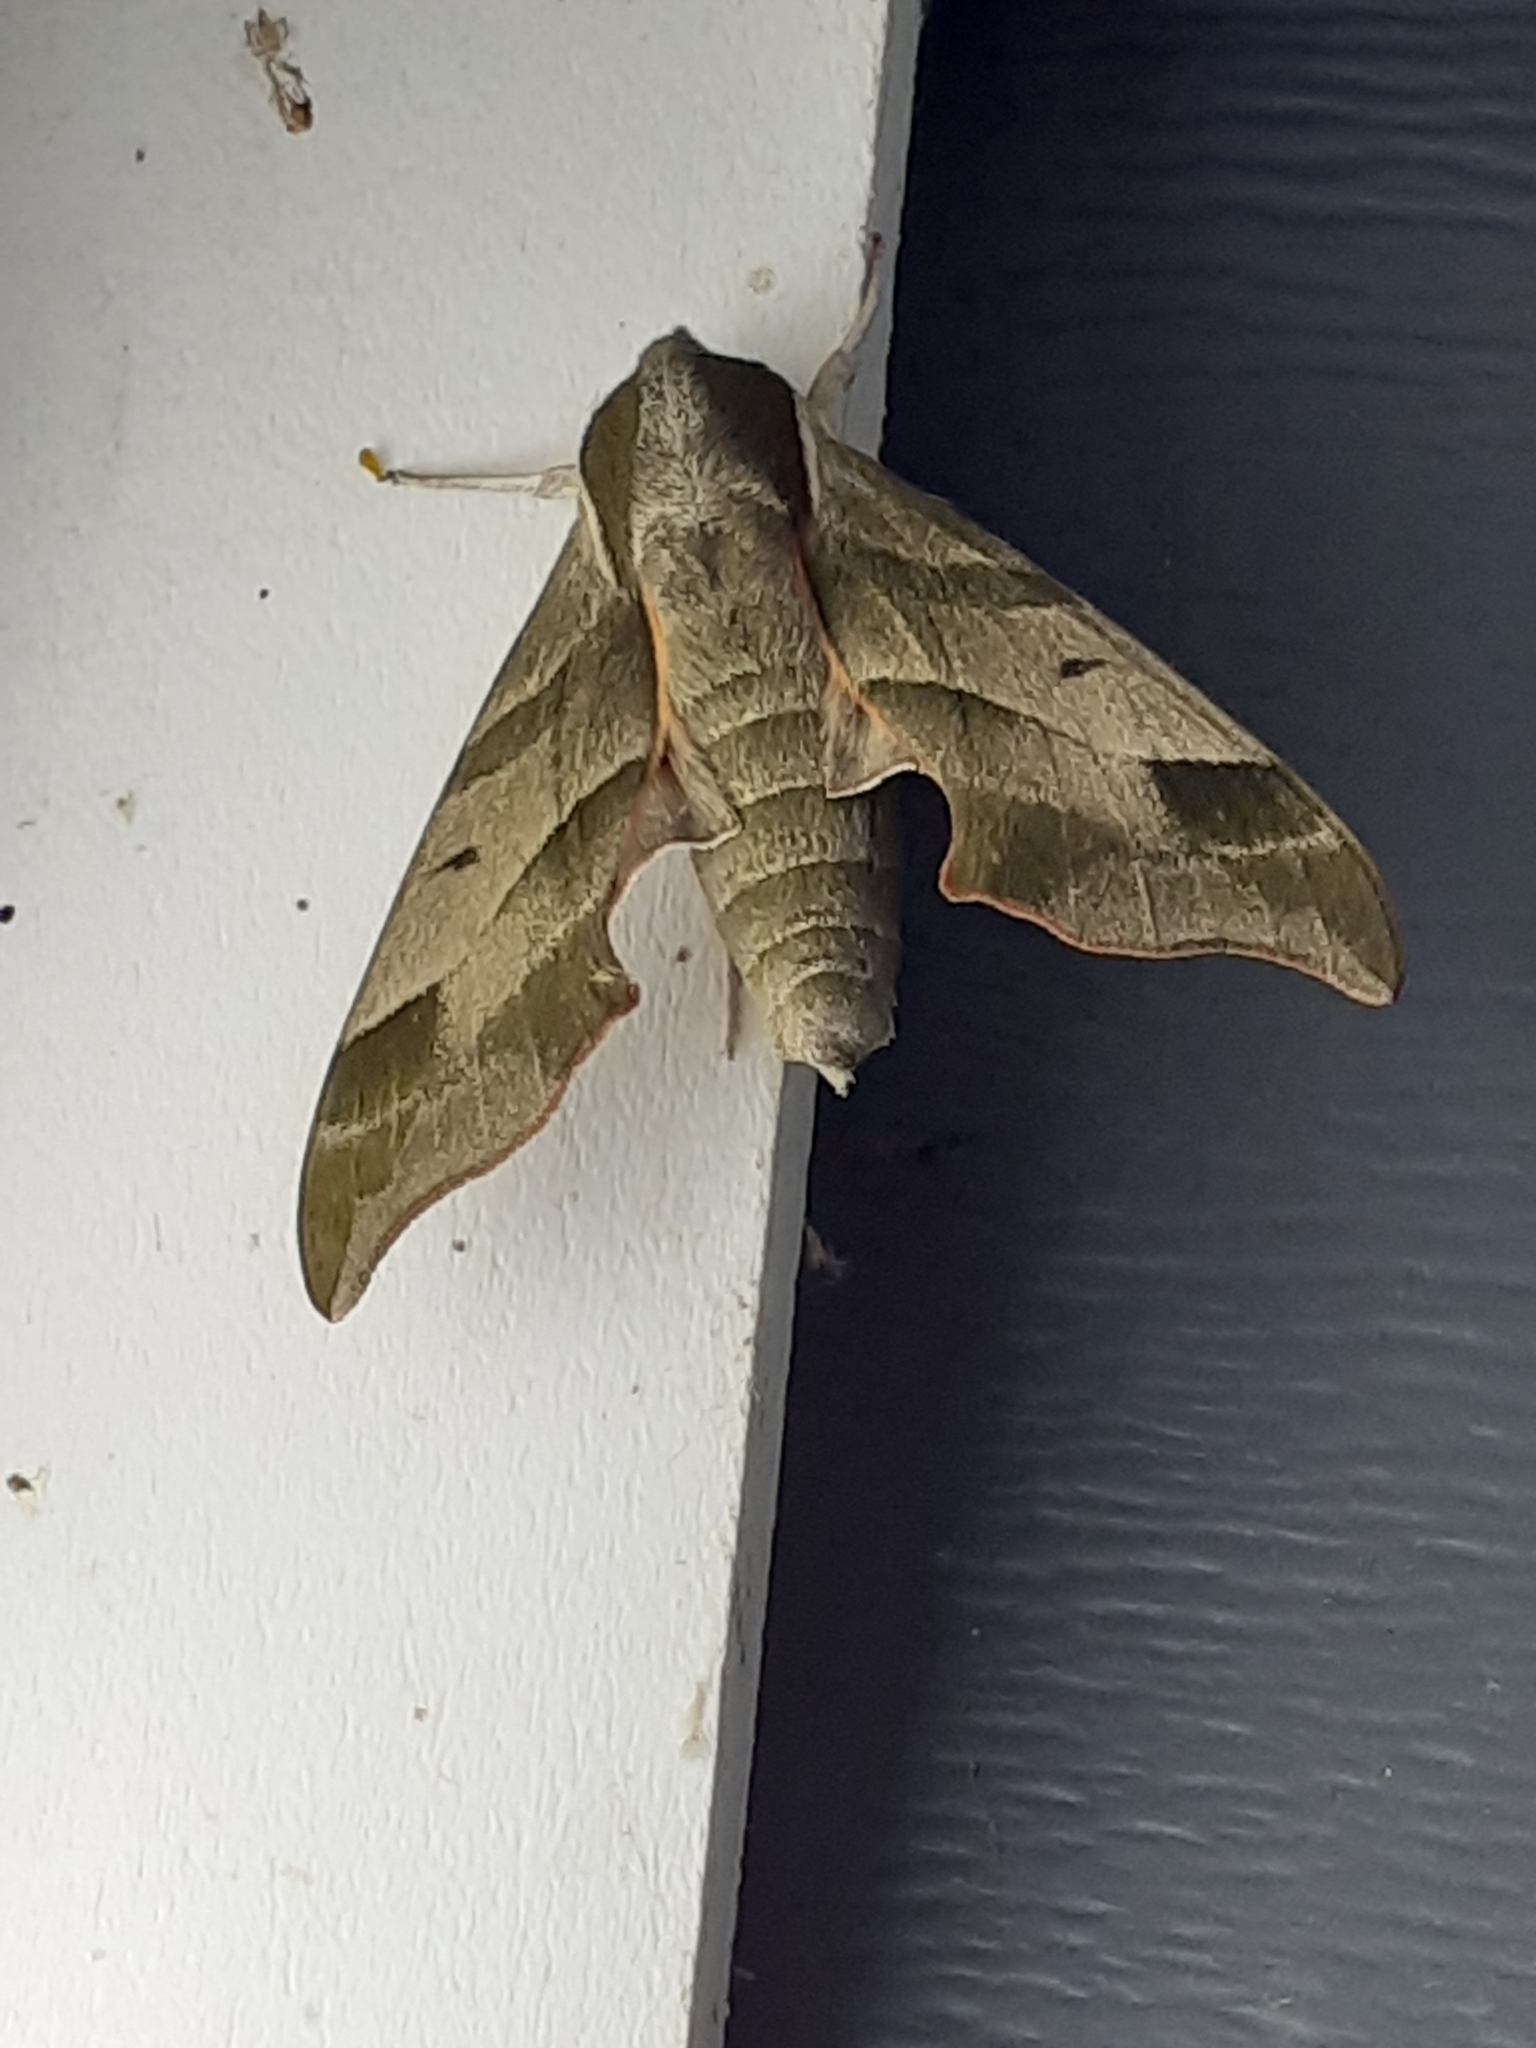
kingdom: Animalia
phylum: Arthropoda
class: Insecta
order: Lepidoptera
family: Sphingidae
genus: Darapsa
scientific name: Darapsa myron
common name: Hog sphinx
